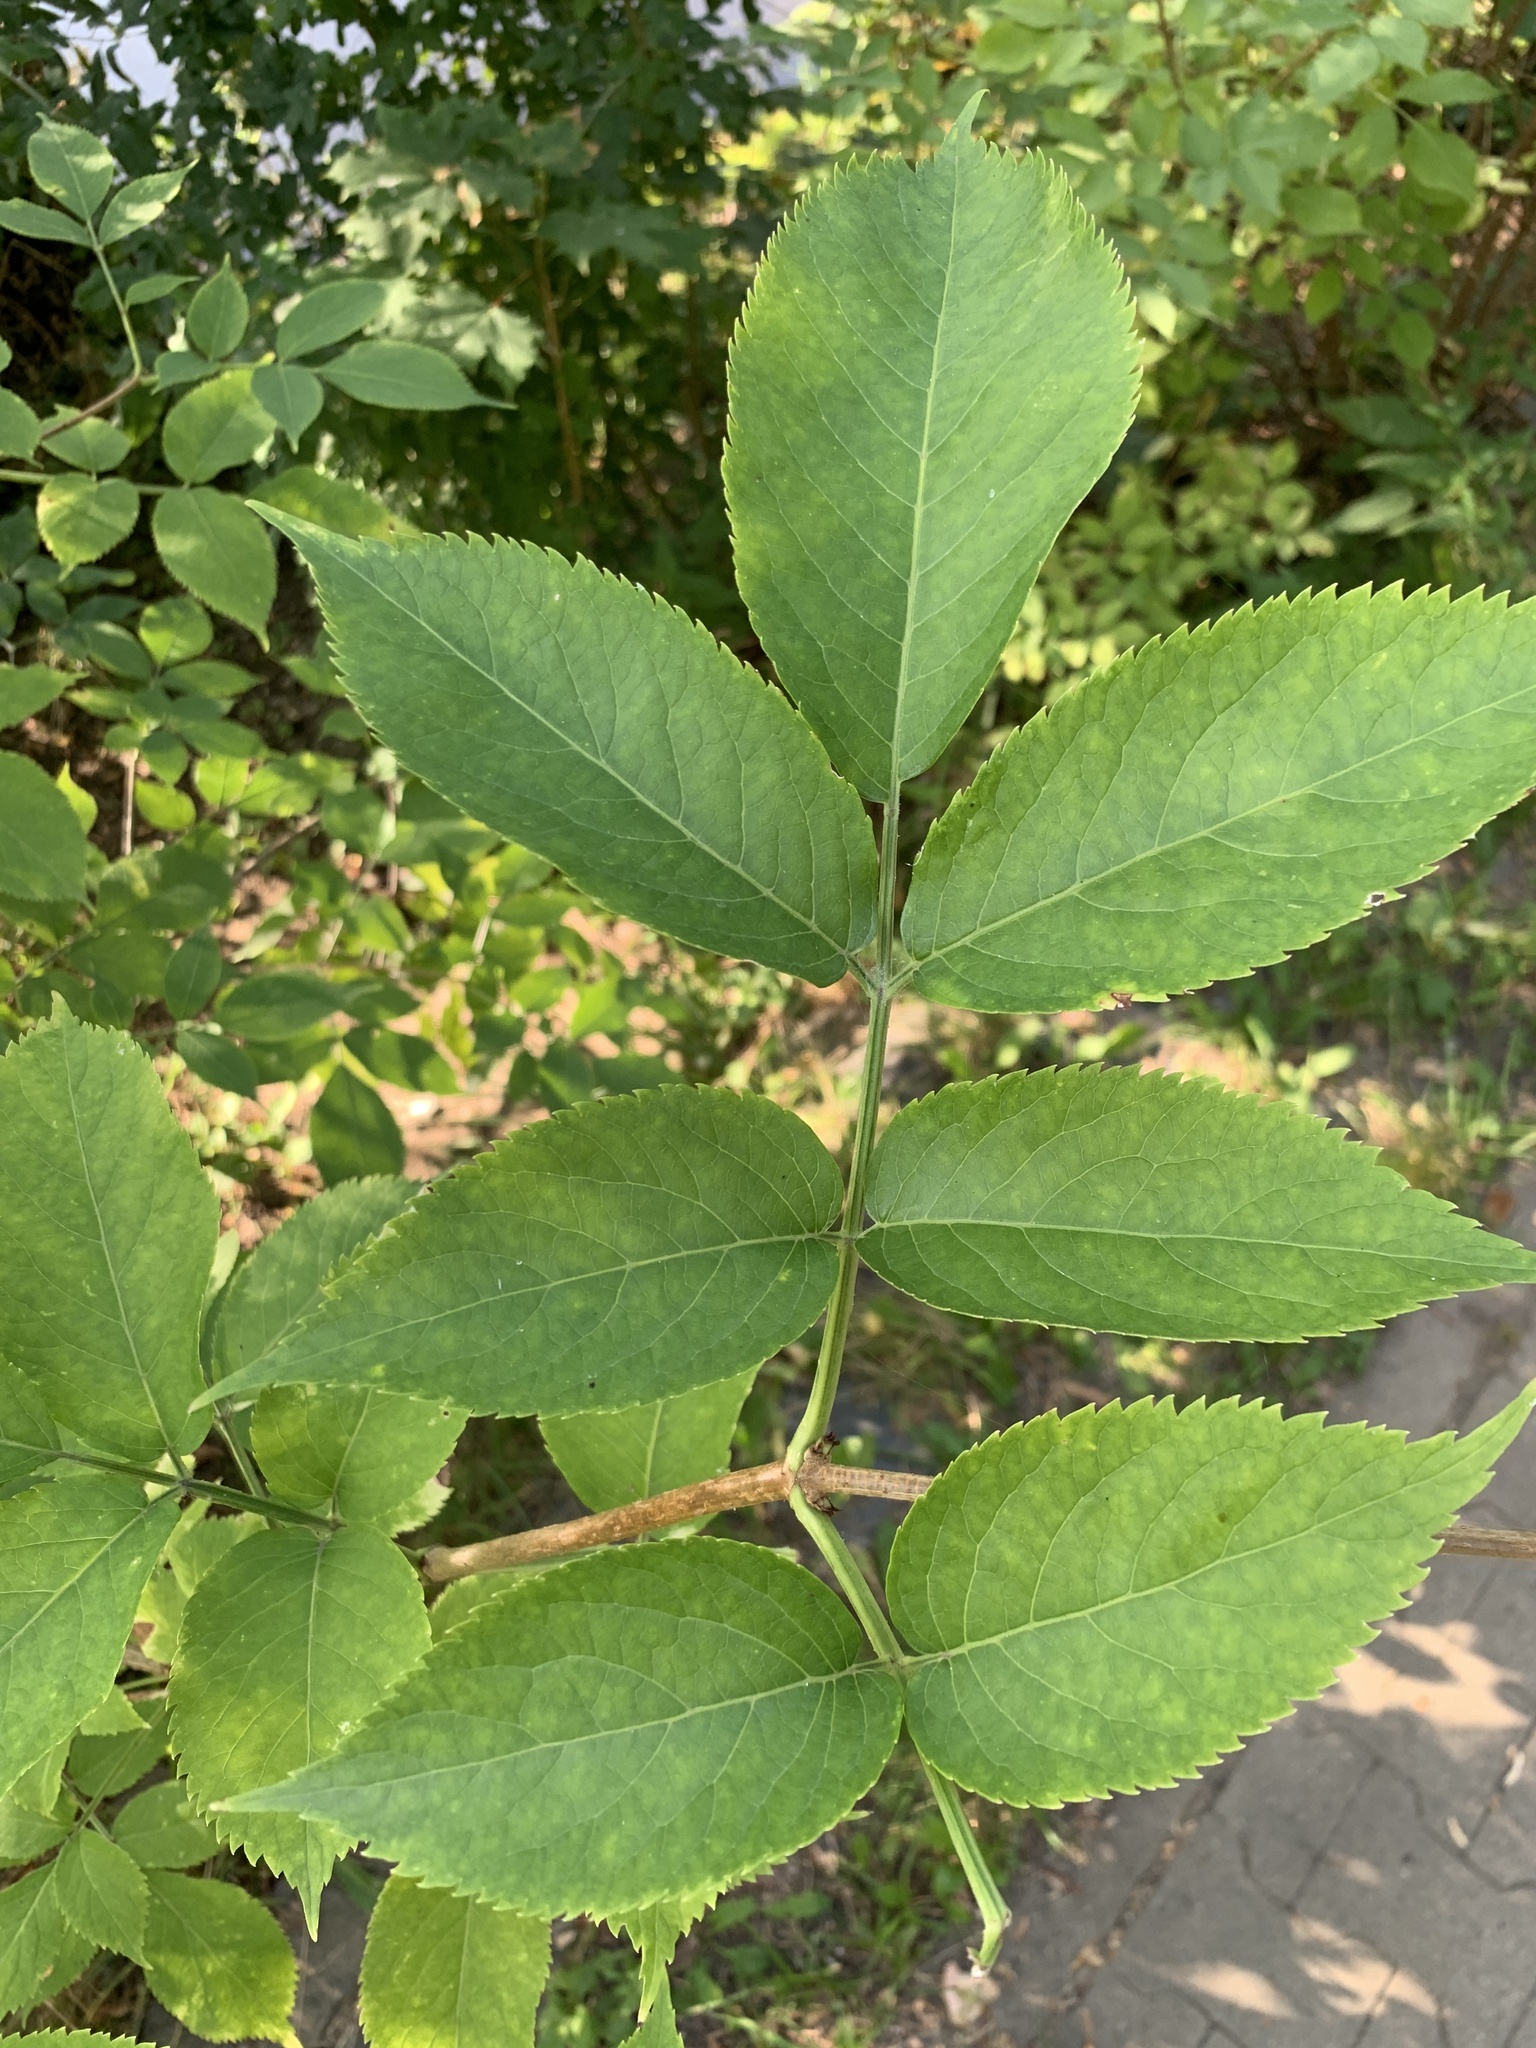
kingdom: Plantae
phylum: Tracheophyta
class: Magnoliopsida
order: Dipsacales
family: Viburnaceae
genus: Sambucus
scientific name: Sambucus nigra
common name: Elder
